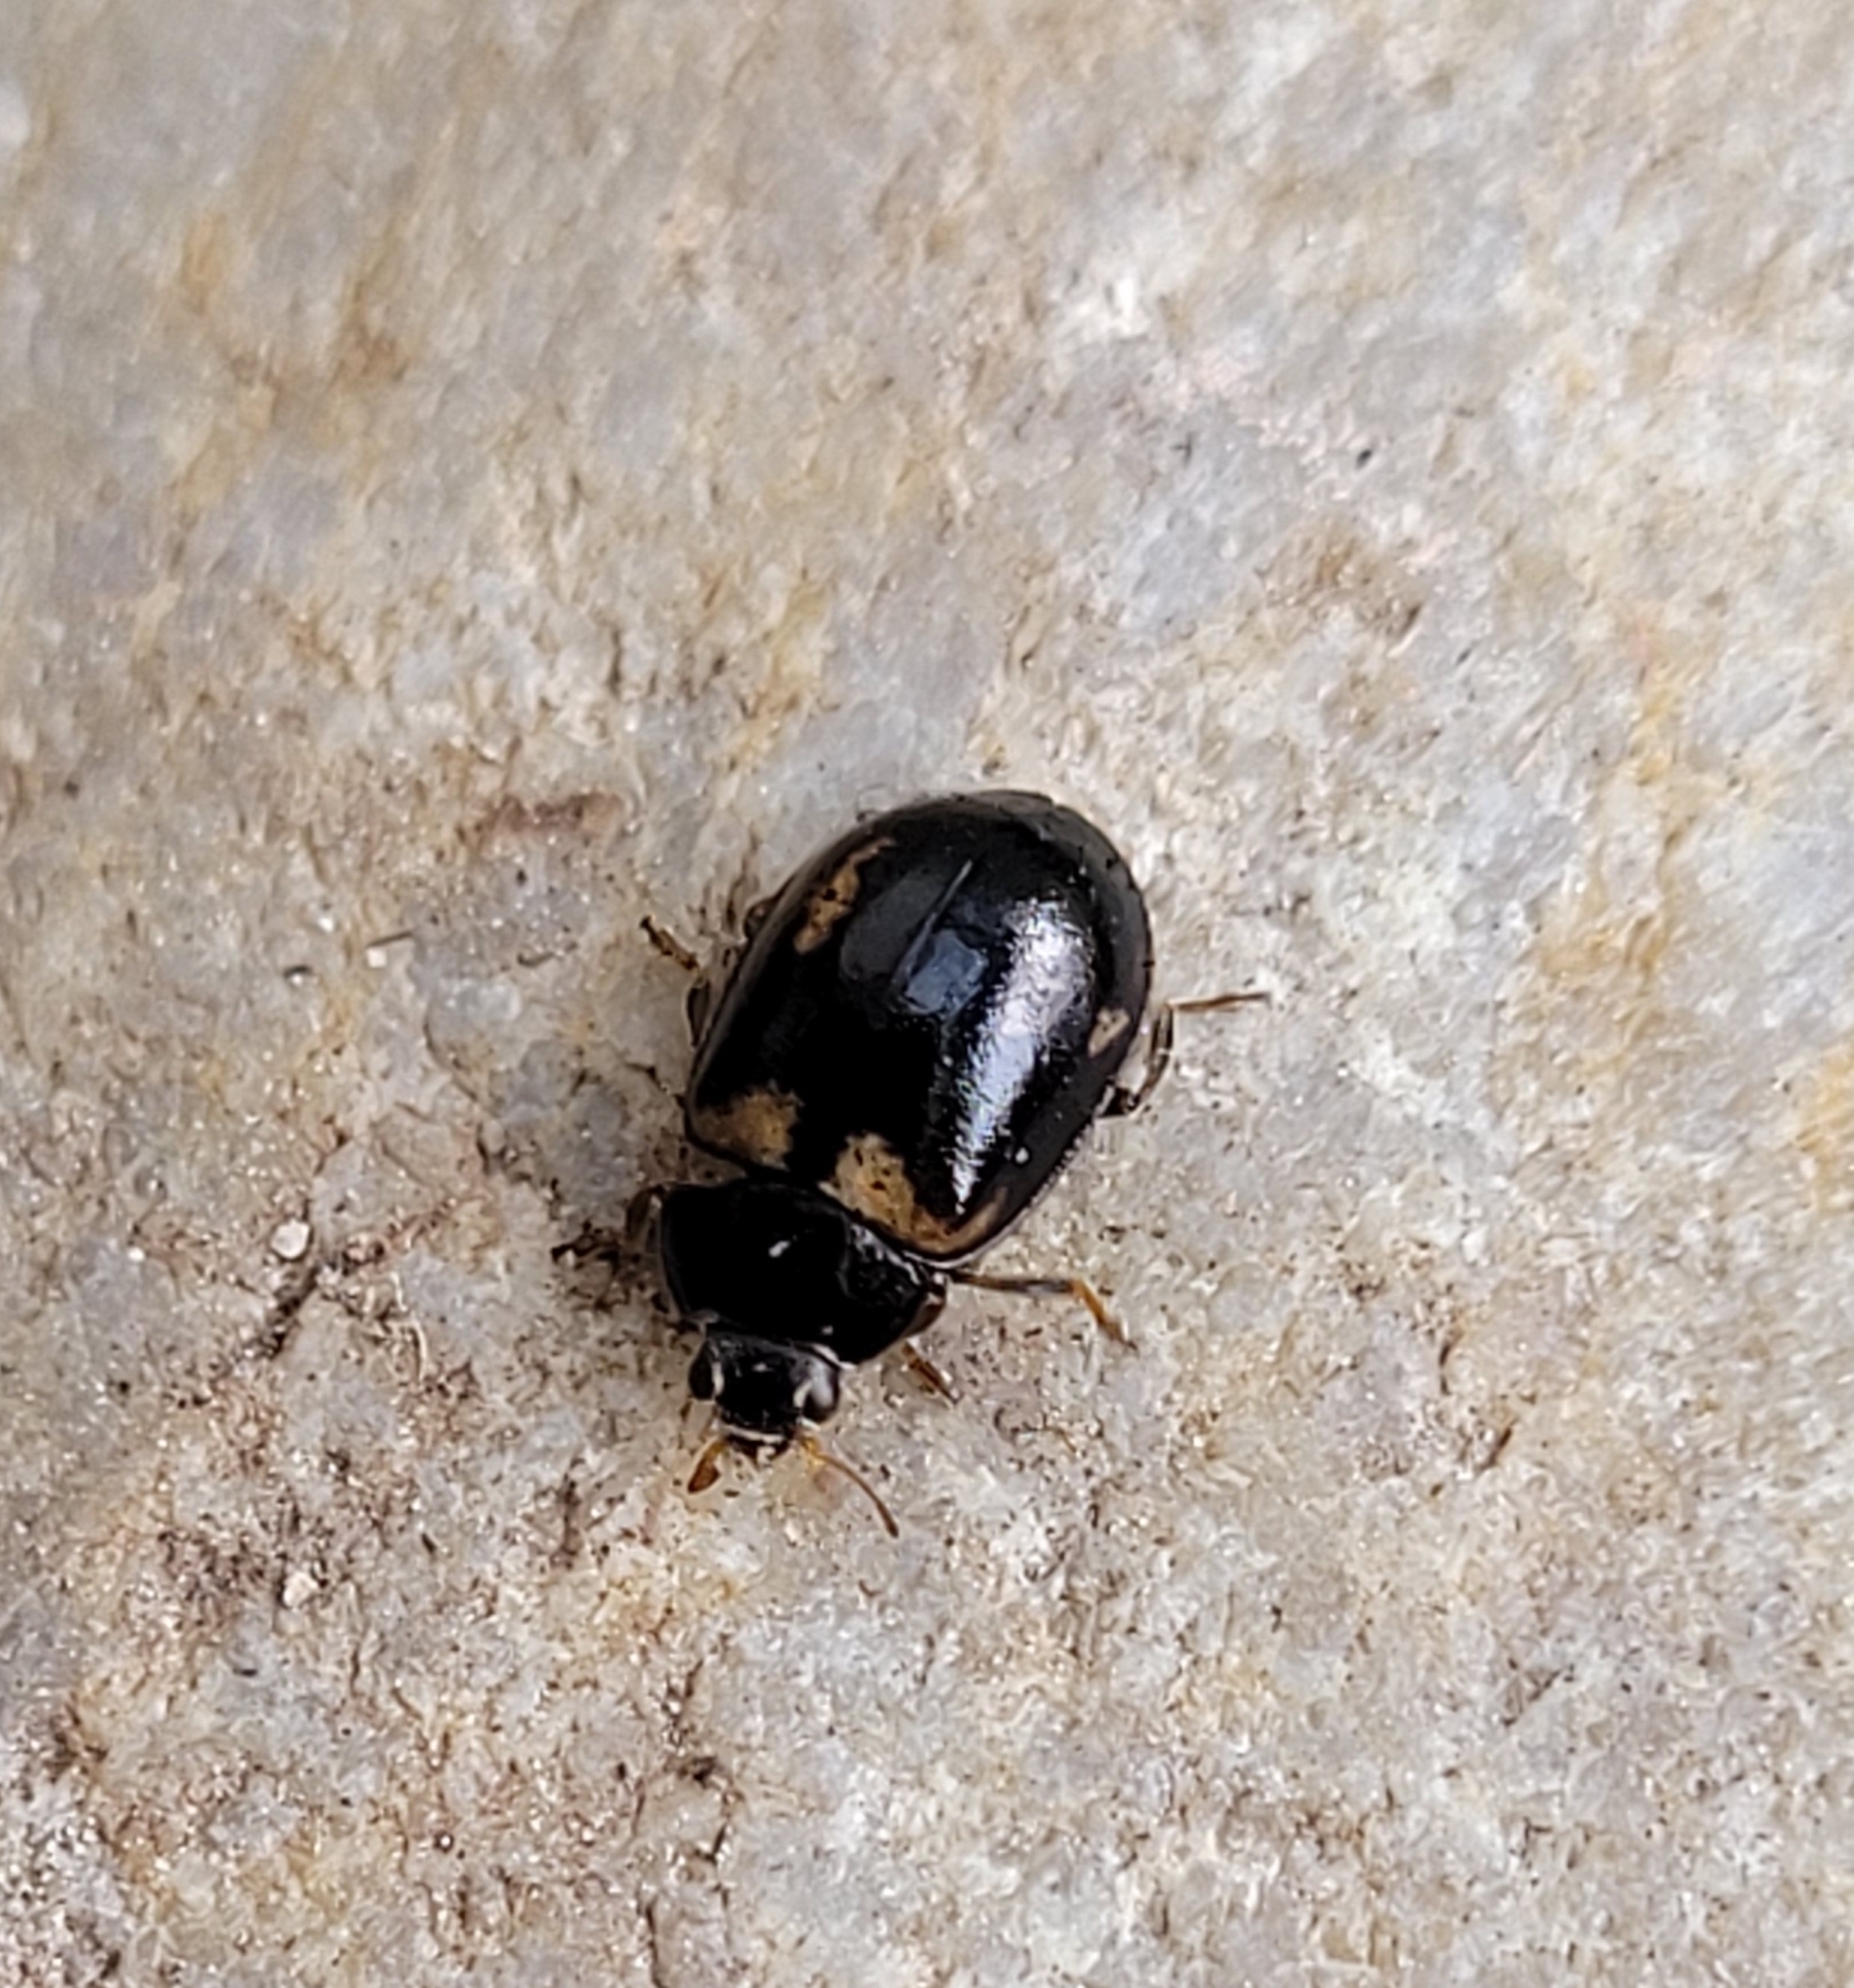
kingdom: Animalia
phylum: Arthropoda
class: Insecta
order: Coleoptera
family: Coccinellidae
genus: Aphidecta
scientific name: Aphidecta obliterata
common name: Larch ladybird
